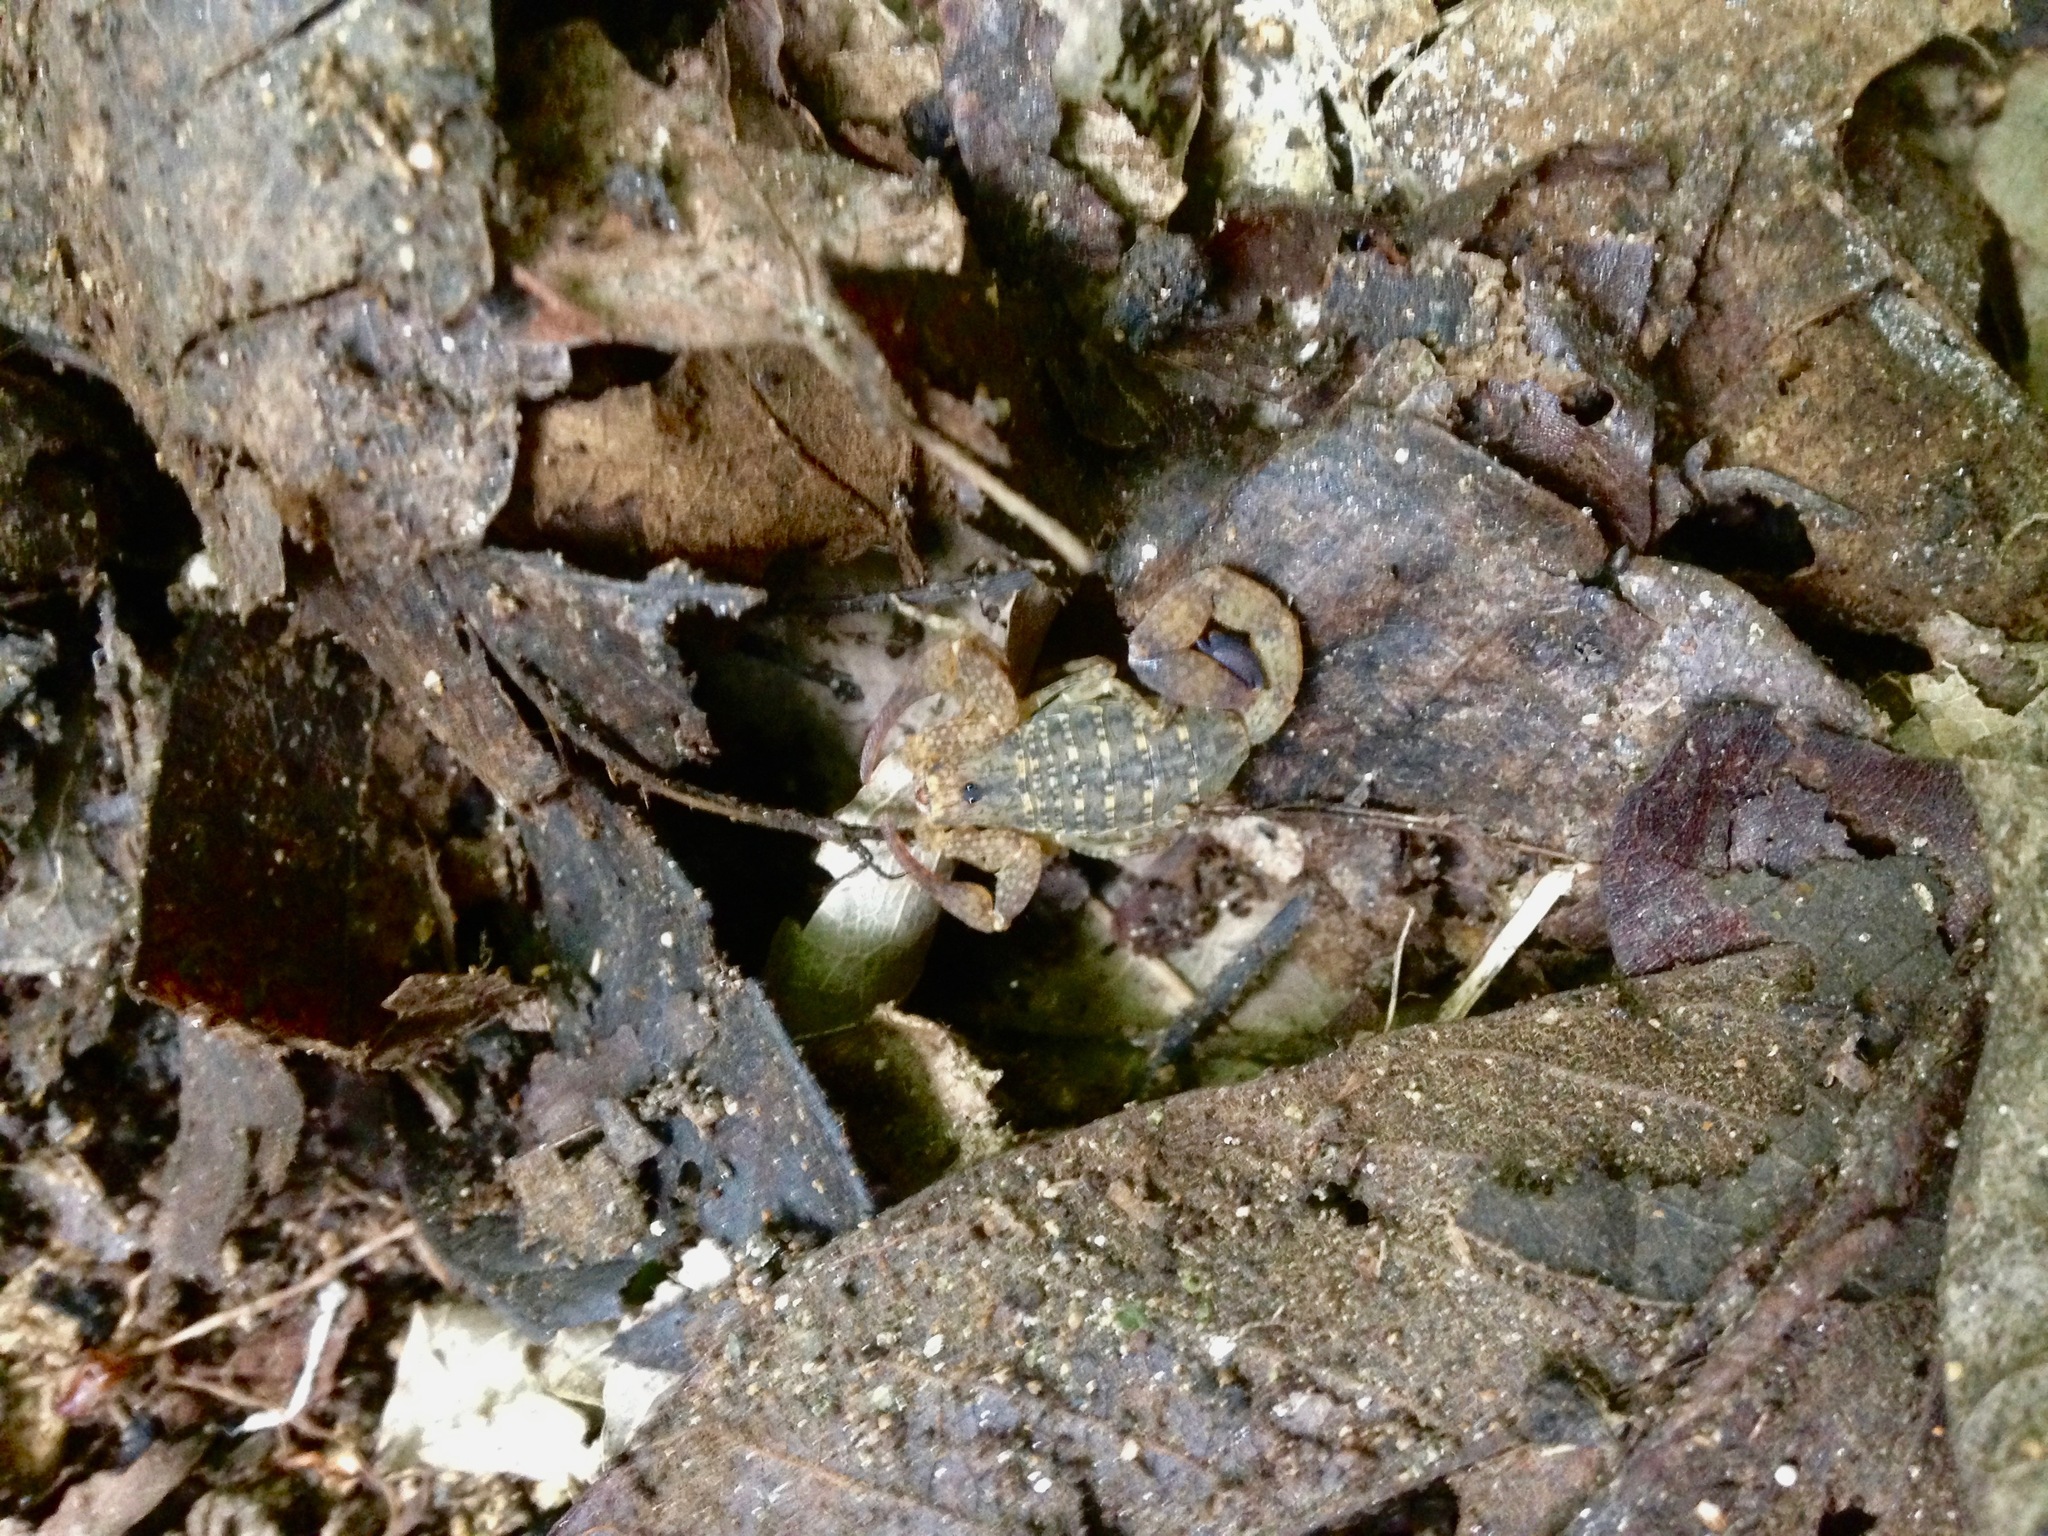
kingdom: Animalia
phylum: Arthropoda
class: Arachnida
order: Scorpiones
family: Buthidae
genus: Tityus
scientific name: Tityus tayrona
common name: Scorpiones
